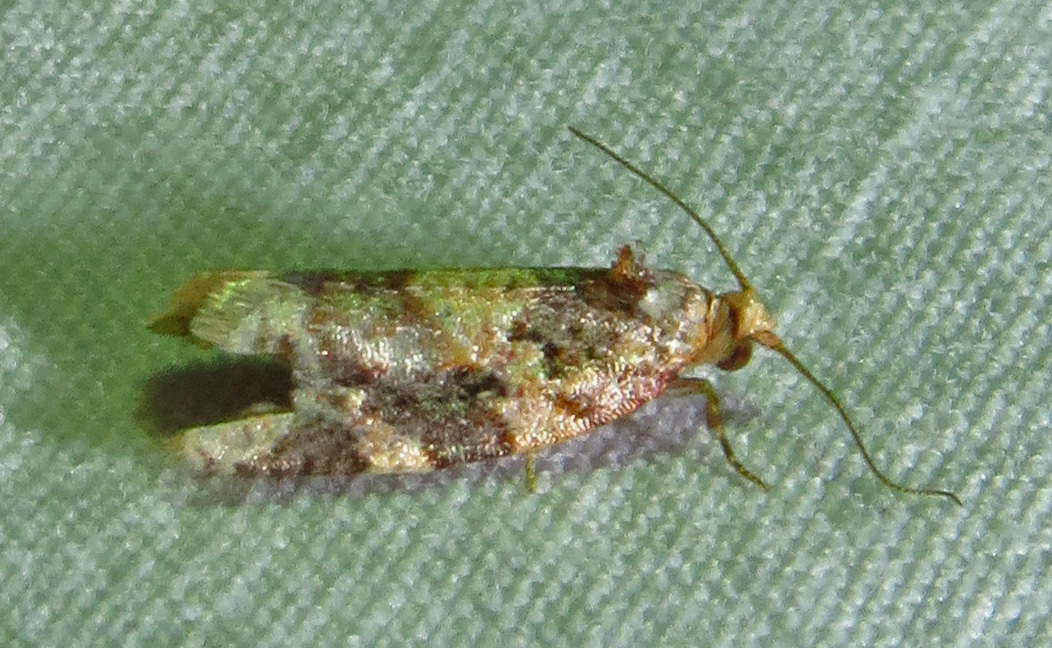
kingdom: Animalia
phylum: Arthropoda
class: Insecta
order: Lepidoptera
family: Tortricidae
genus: Argyrotaenia
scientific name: Argyrotaenia velutinana
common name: Red-banded leafroller moth
